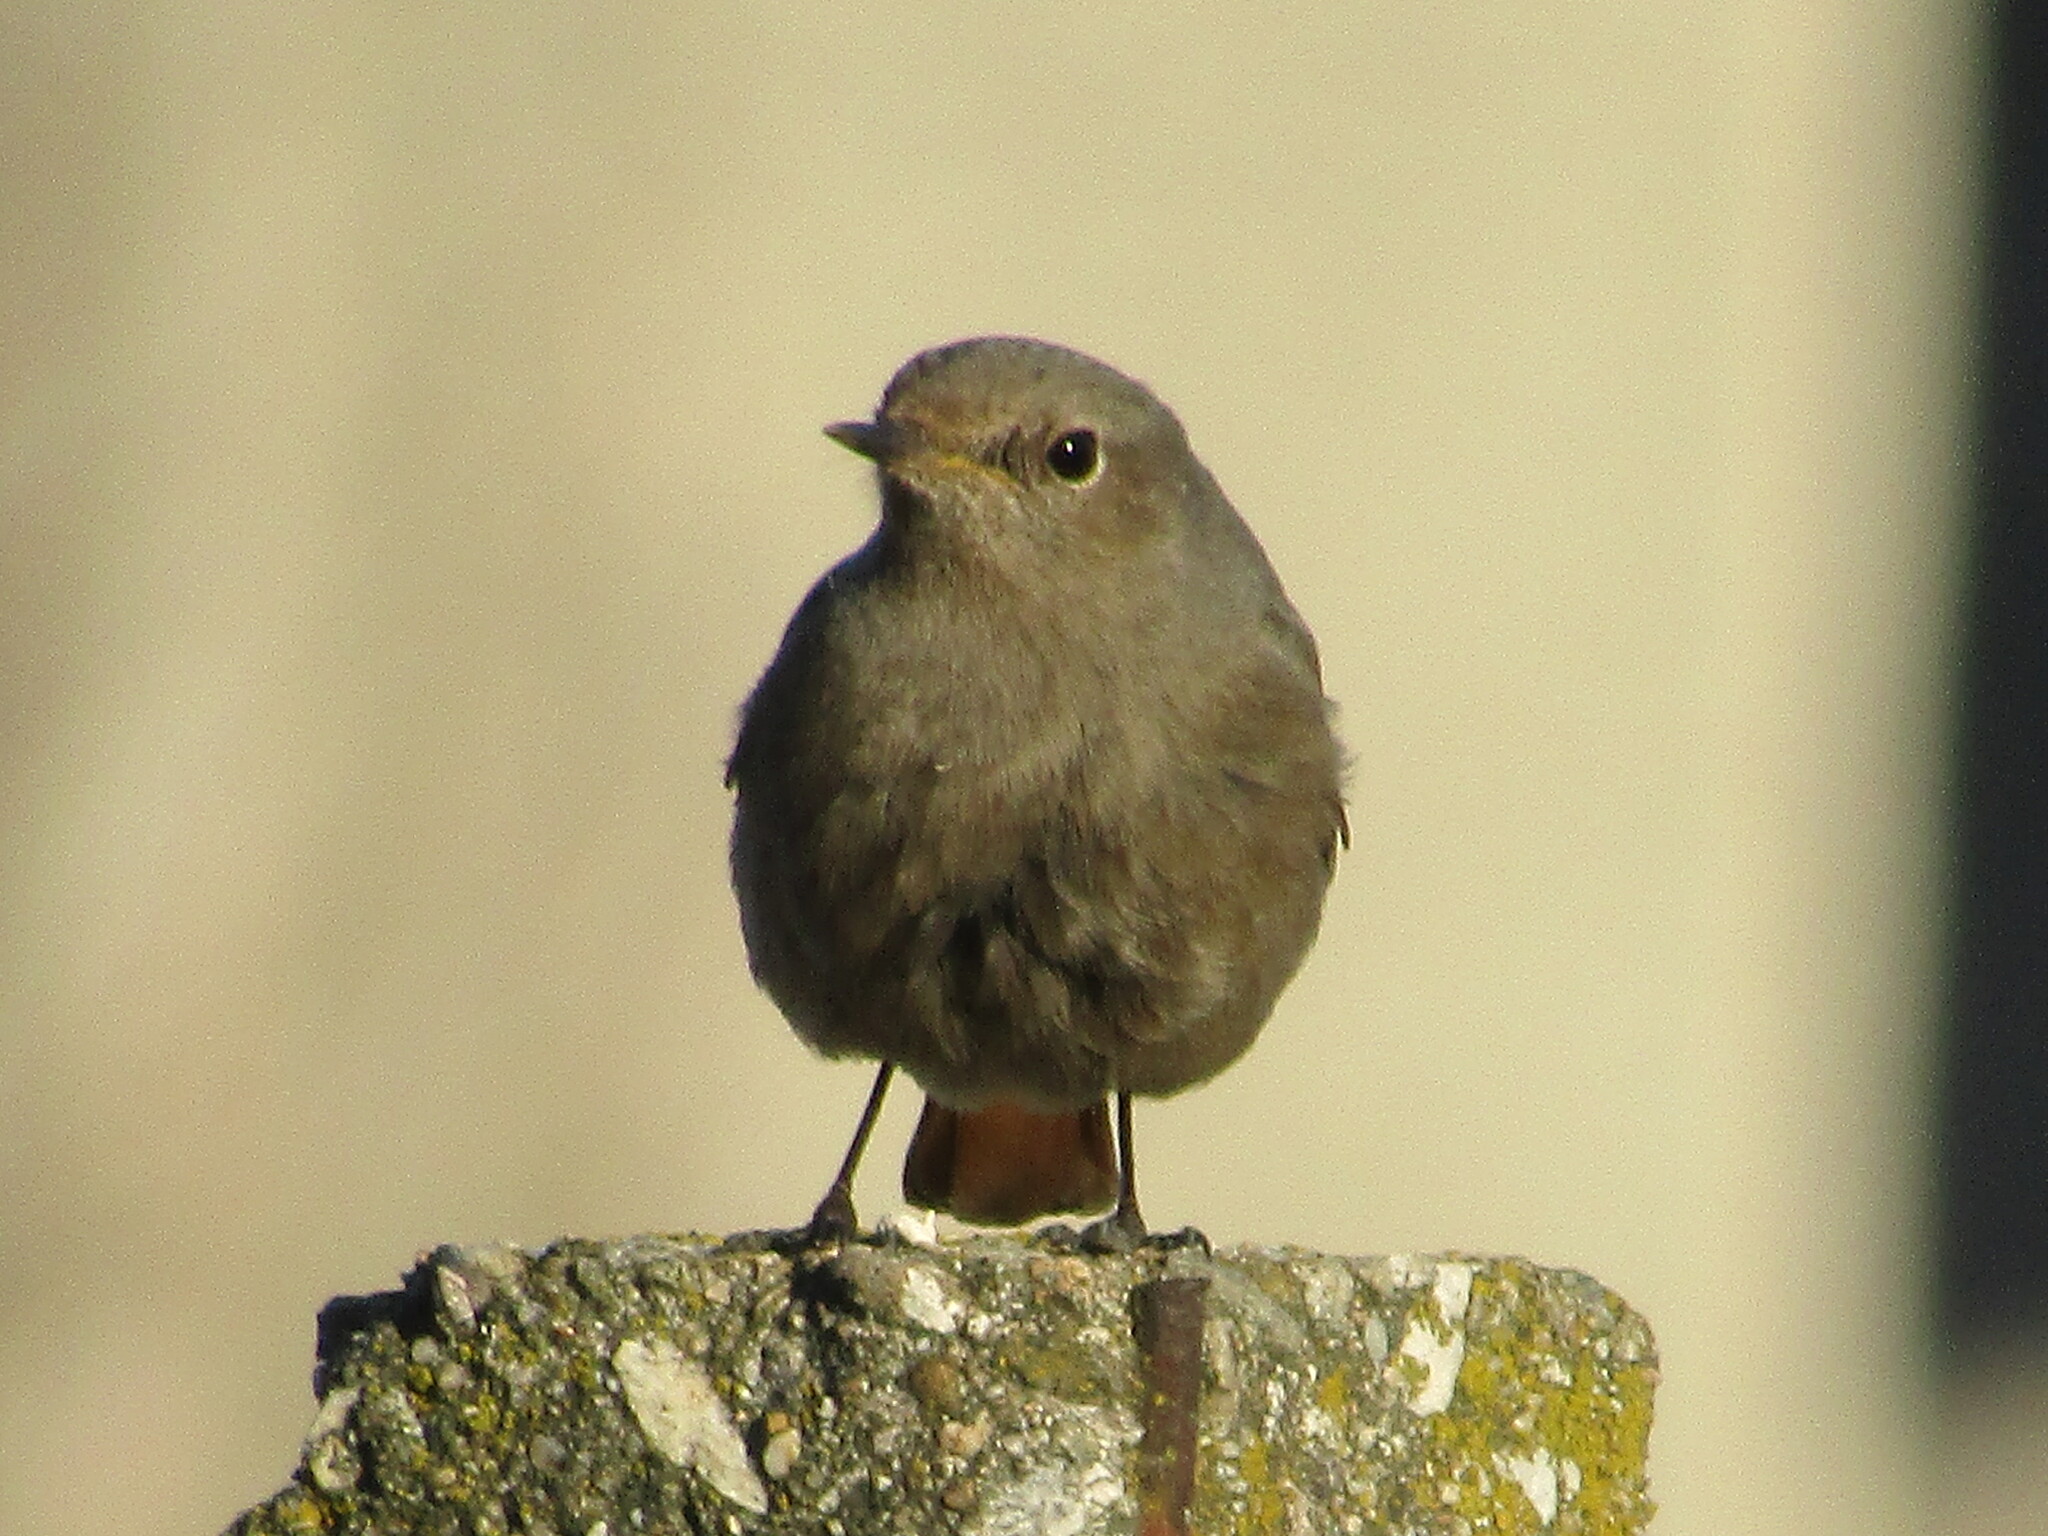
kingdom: Animalia
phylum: Chordata
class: Aves
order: Passeriformes
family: Muscicapidae
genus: Phoenicurus
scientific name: Phoenicurus ochruros
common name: Black redstart
